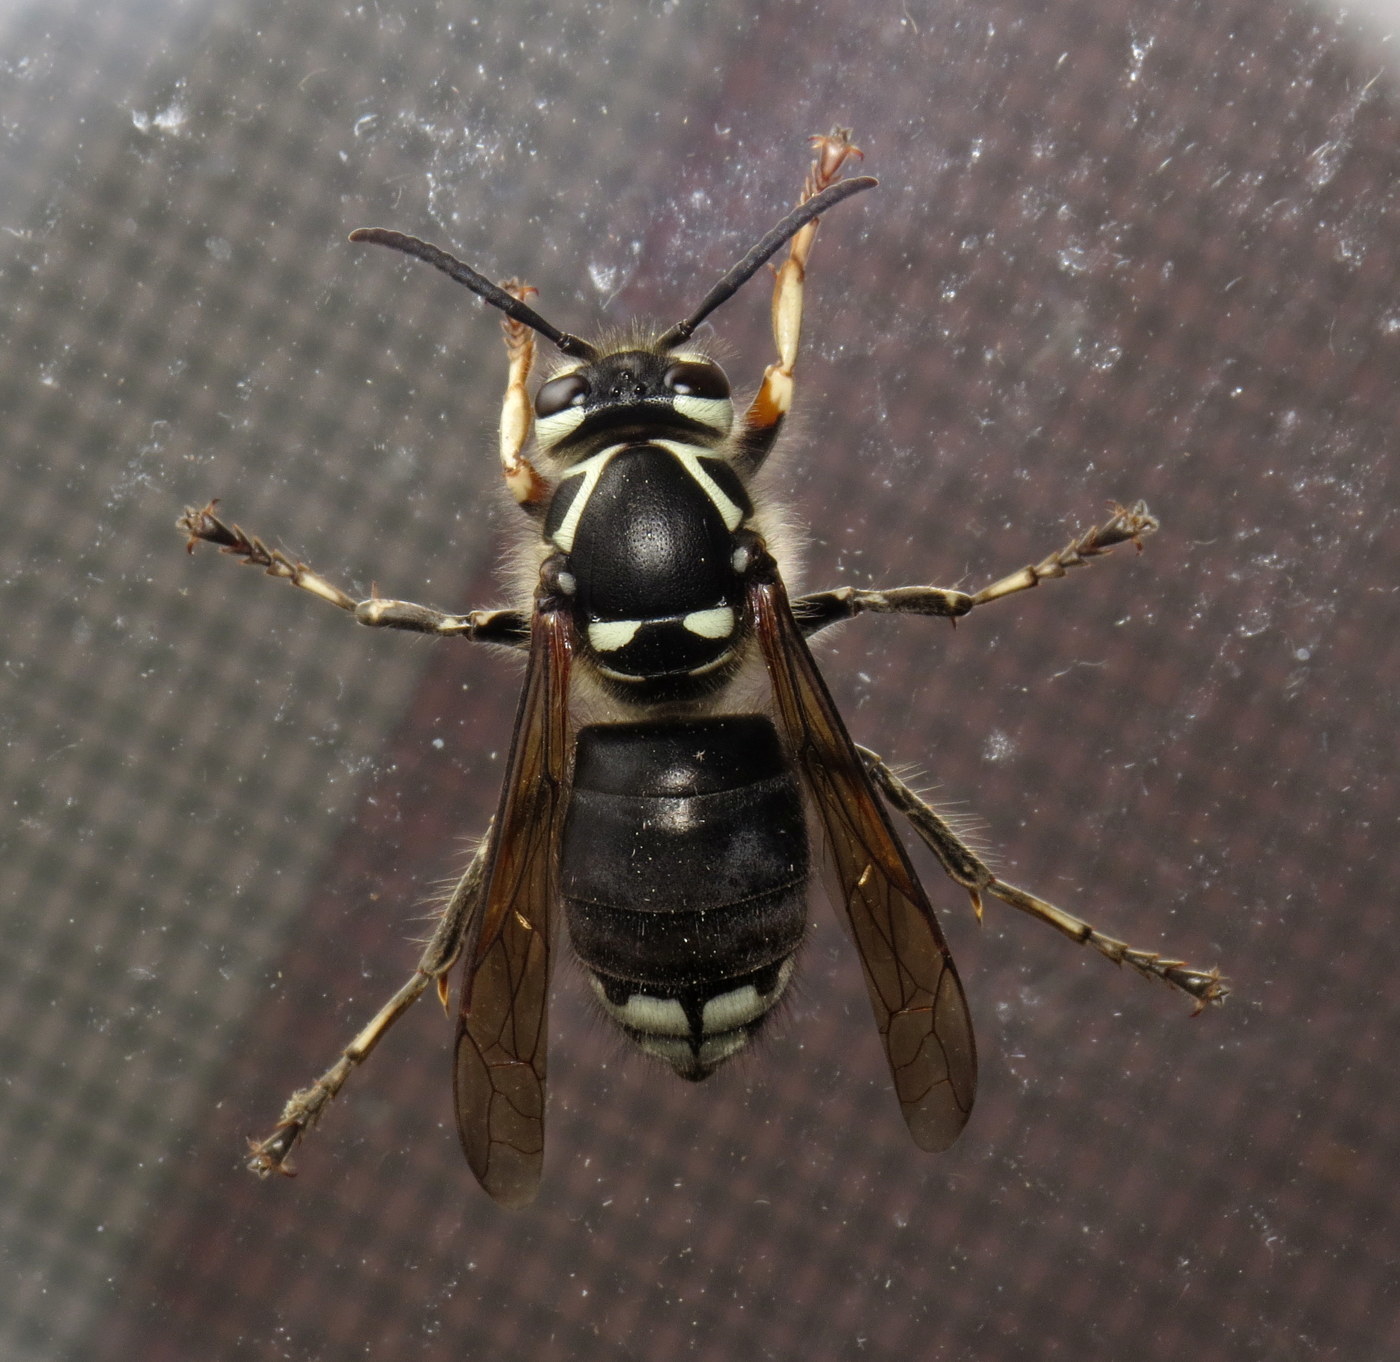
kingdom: Animalia
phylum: Arthropoda
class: Insecta
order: Hymenoptera
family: Vespidae
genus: Dolichovespula
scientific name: Dolichovespula maculata
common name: Bald-faced hornet
